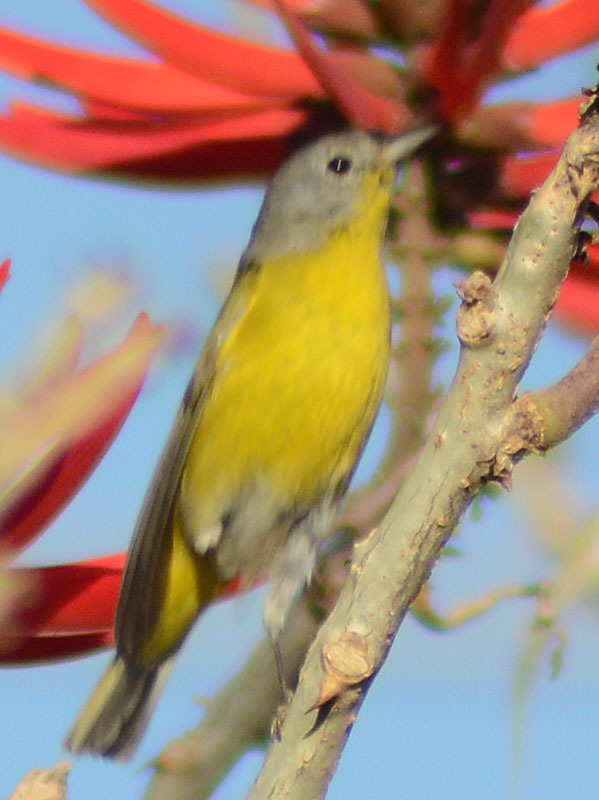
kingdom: Animalia
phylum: Chordata
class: Aves
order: Passeriformes
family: Parulidae
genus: Leiothlypis
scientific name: Leiothlypis ruficapilla
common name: Nashville warbler
